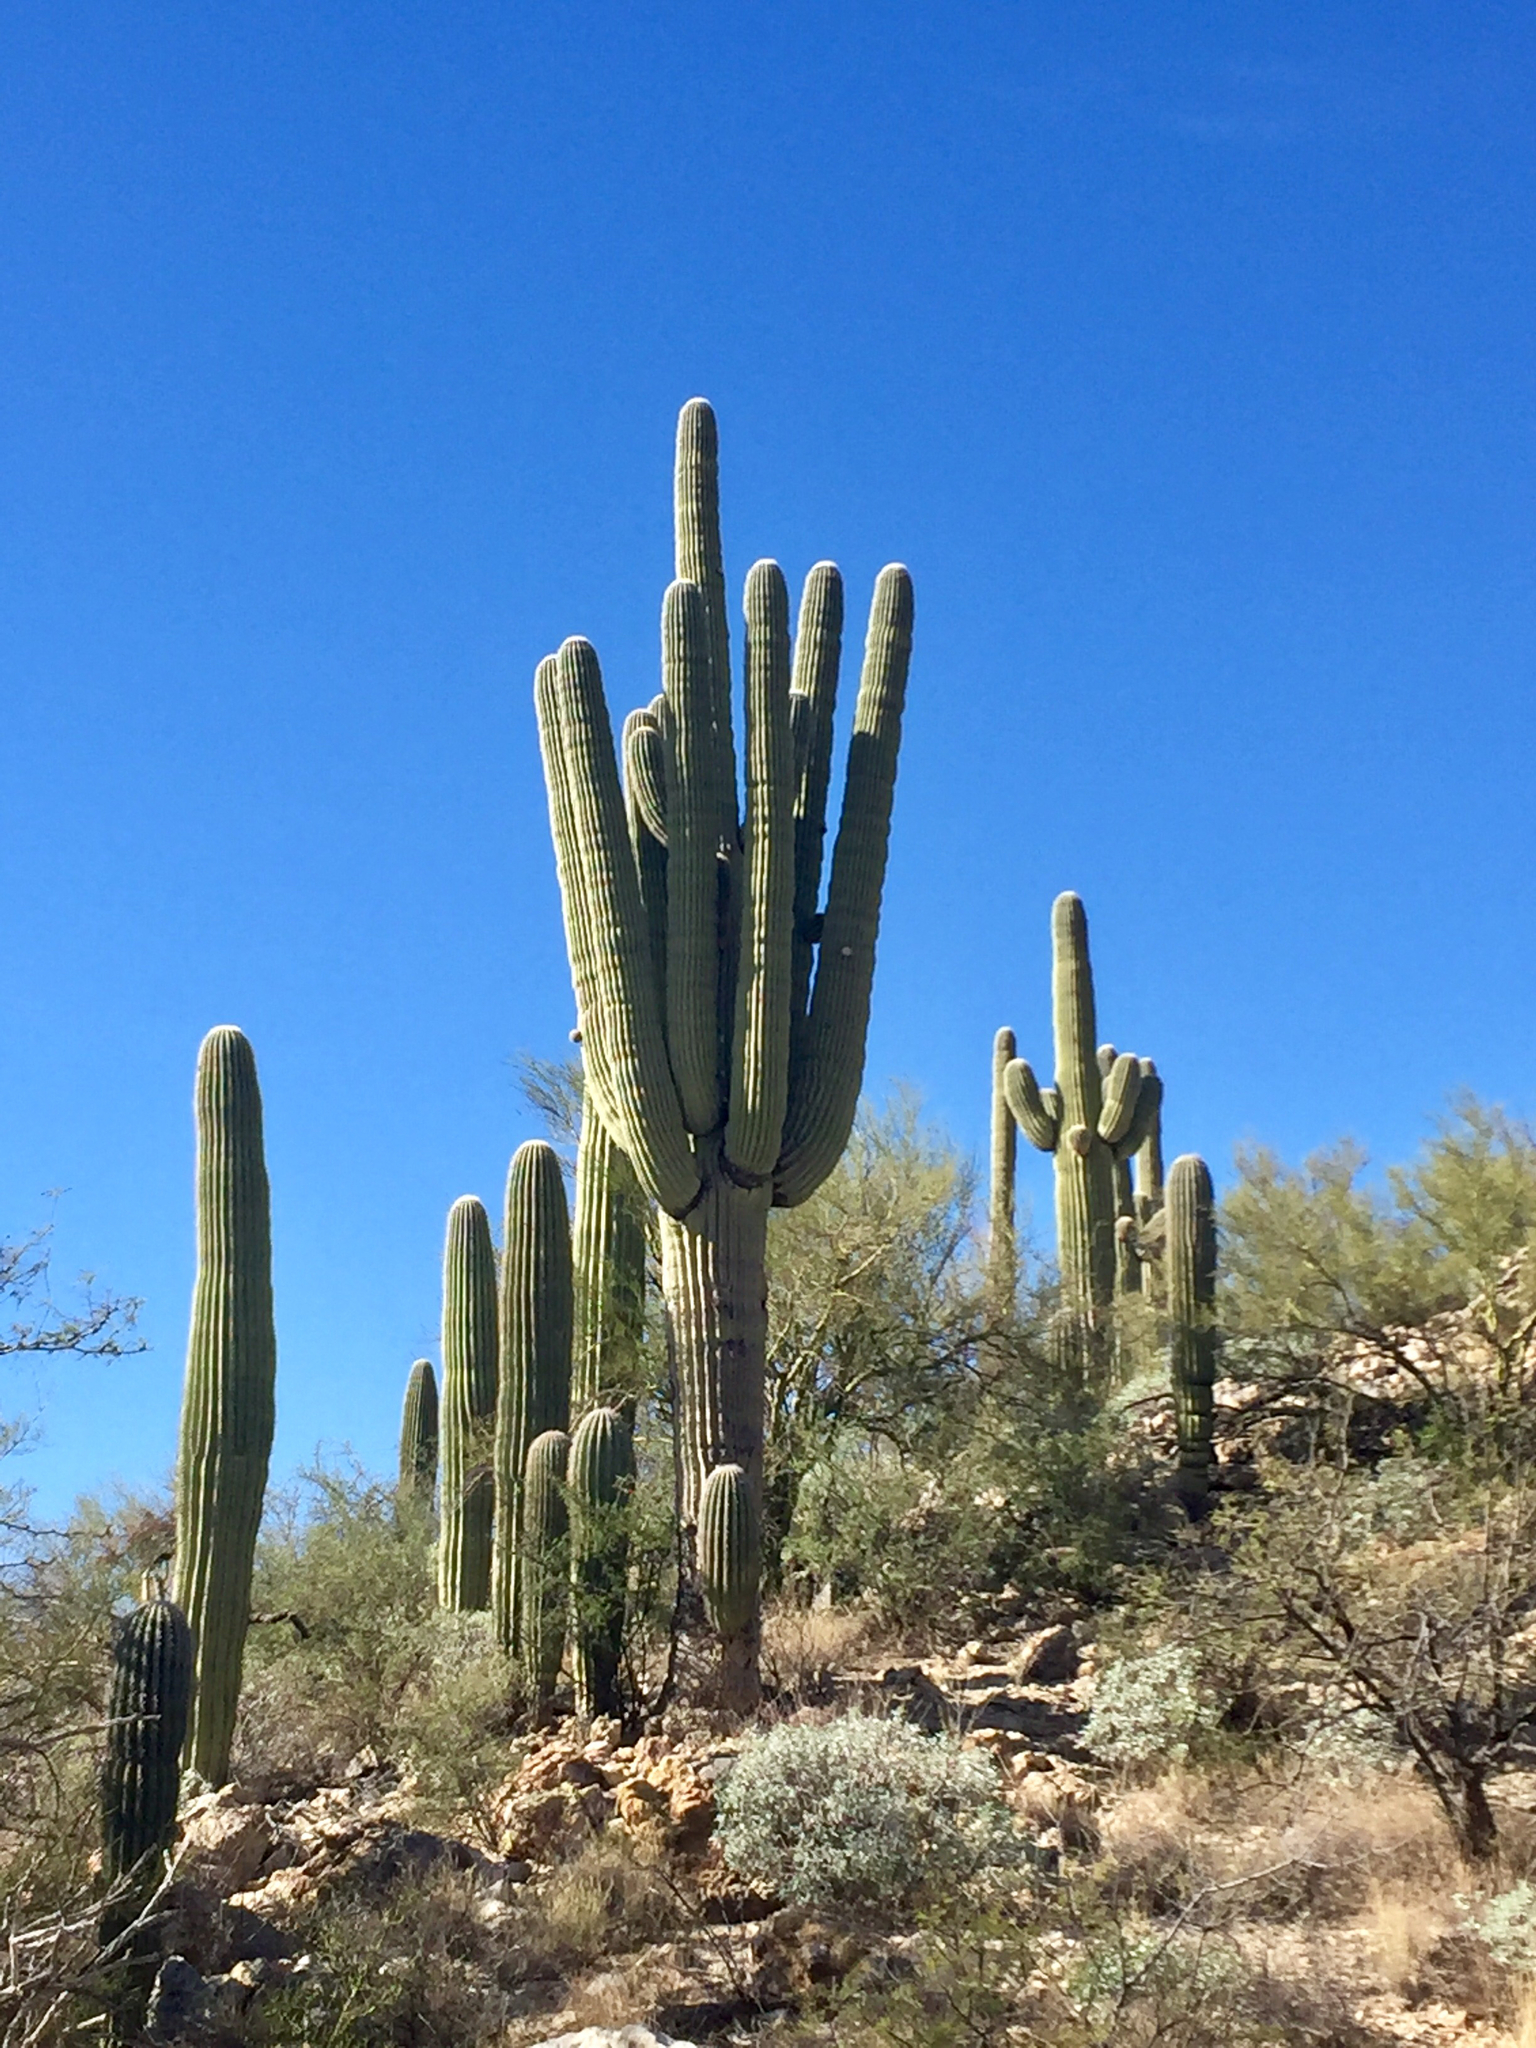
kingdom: Plantae
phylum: Tracheophyta
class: Magnoliopsida
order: Caryophyllales
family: Cactaceae
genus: Carnegiea
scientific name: Carnegiea gigantea
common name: Saguaro
